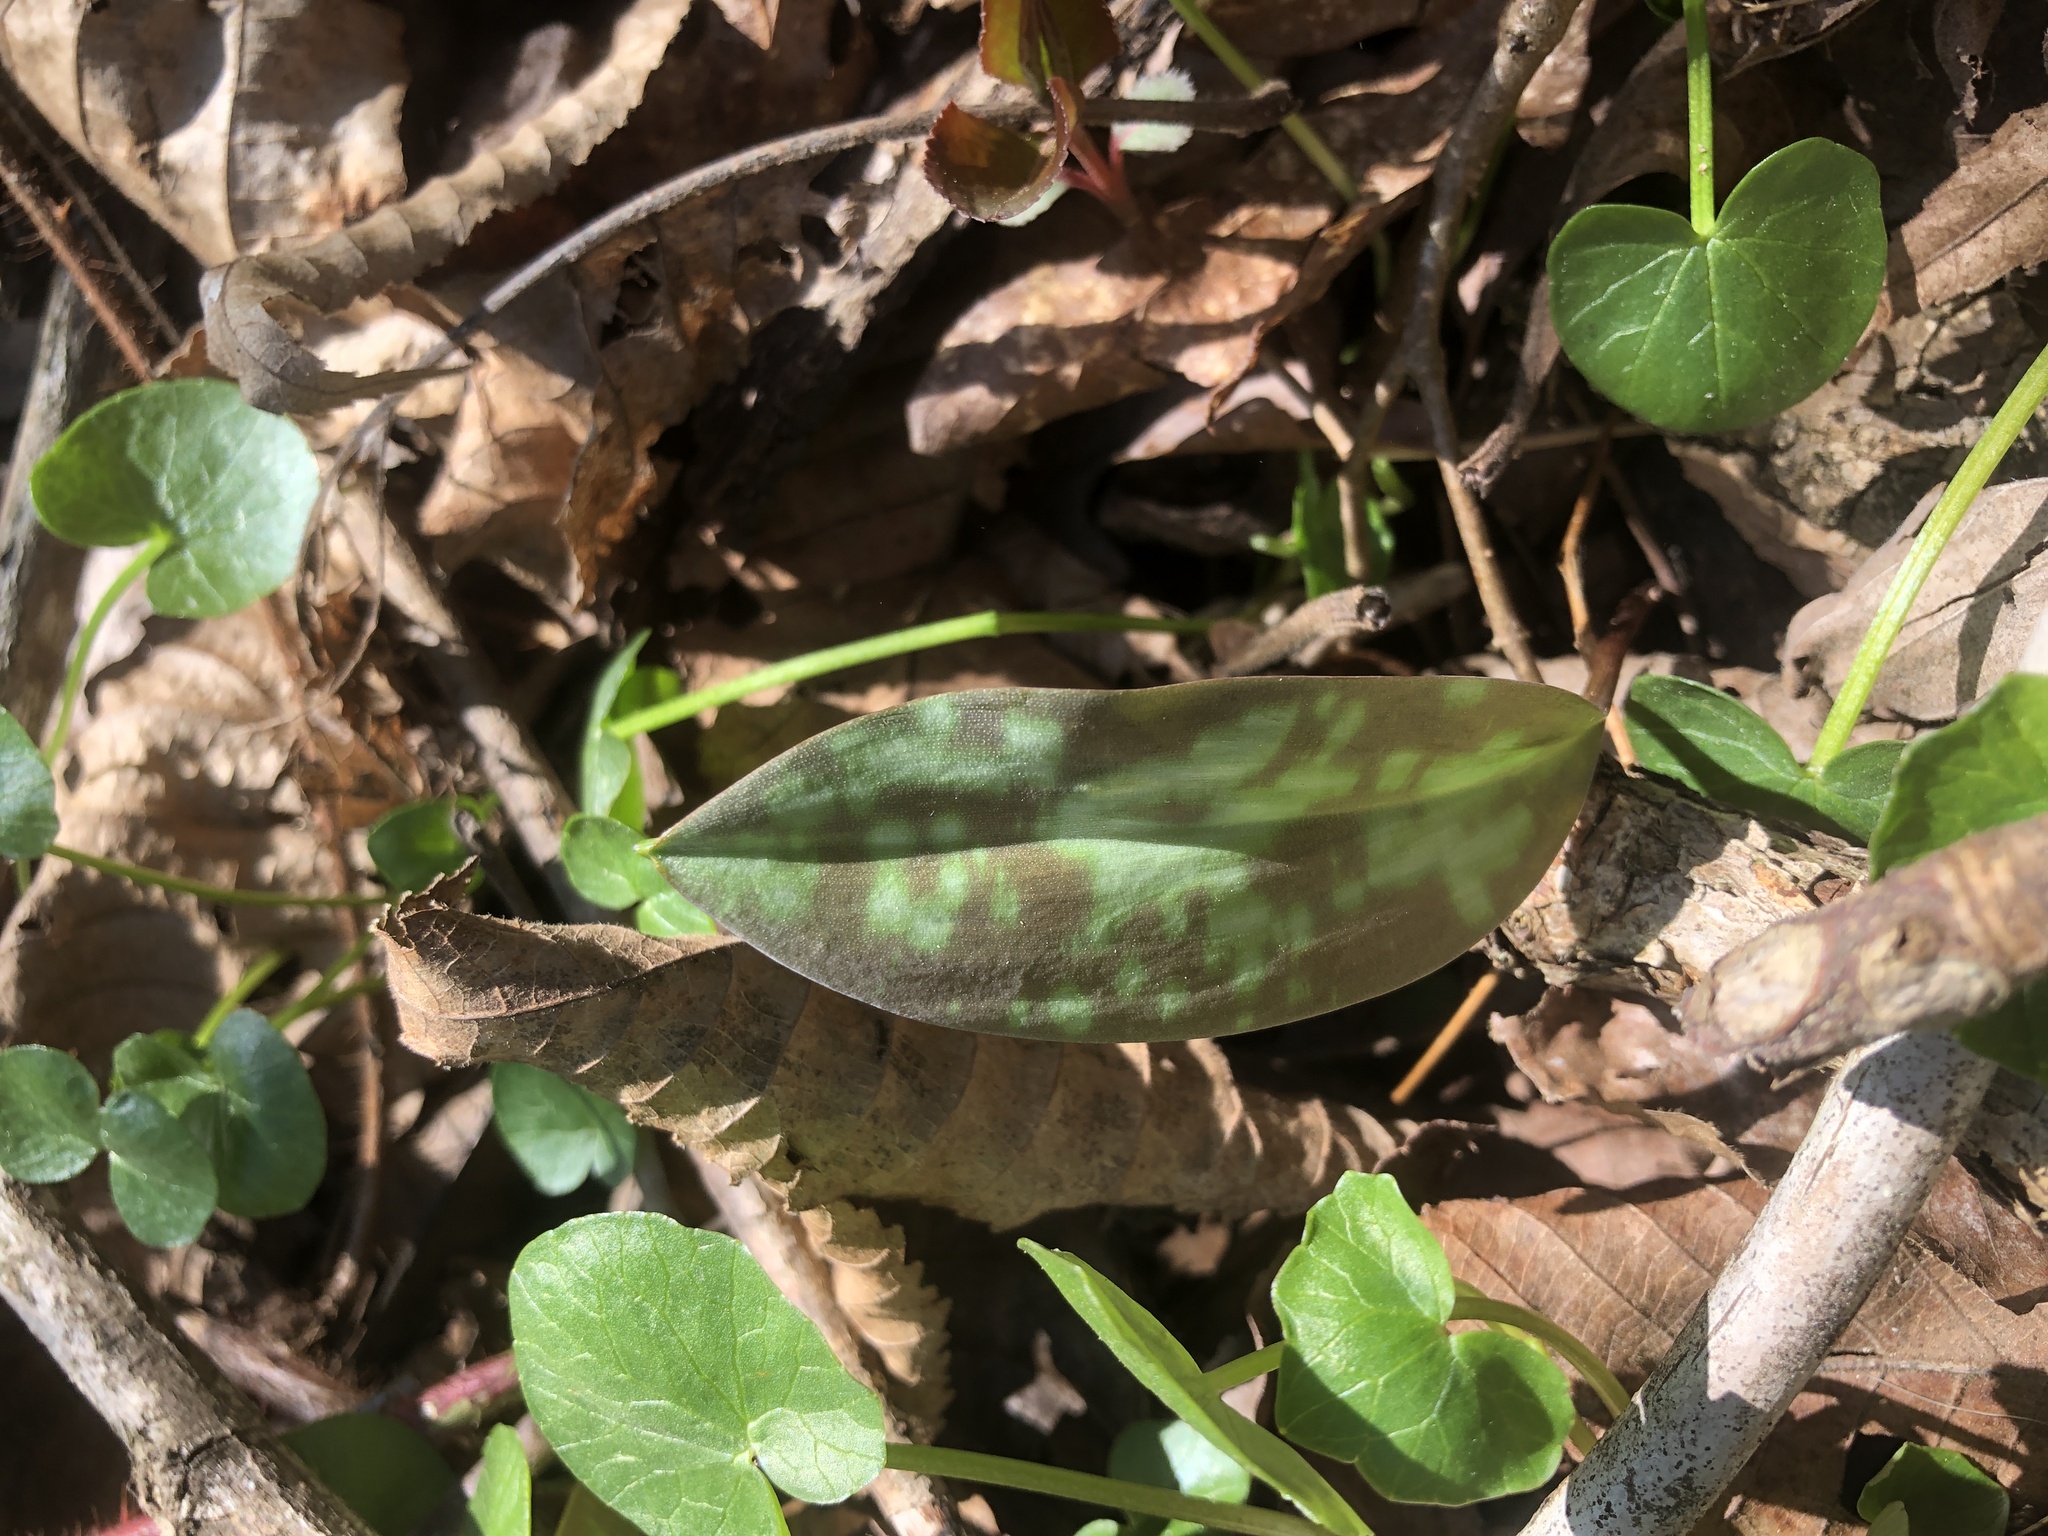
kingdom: Plantae
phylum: Tracheophyta
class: Liliopsida
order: Liliales
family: Liliaceae
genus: Erythronium
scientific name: Erythronium americanum
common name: Yellow adder's-tongue
